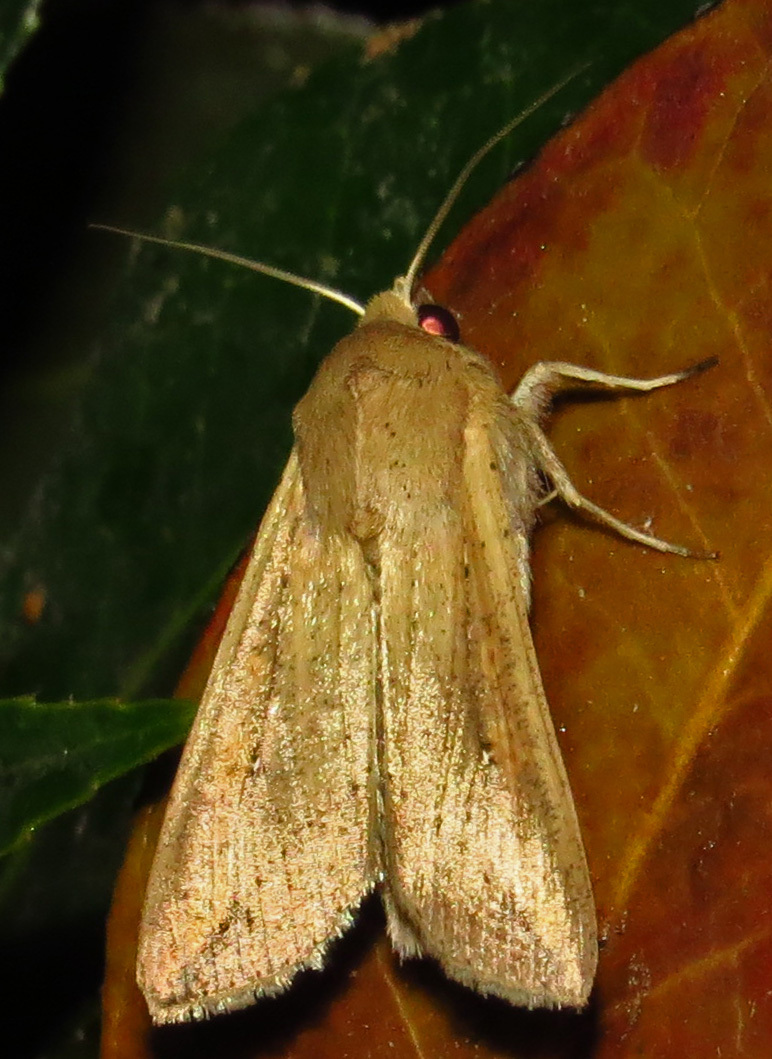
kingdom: Animalia
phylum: Arthropoda
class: Insecta
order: Lepidoptera
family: Noctuidae
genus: Mythimna
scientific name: Mythimna unipuncta
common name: White-speck
